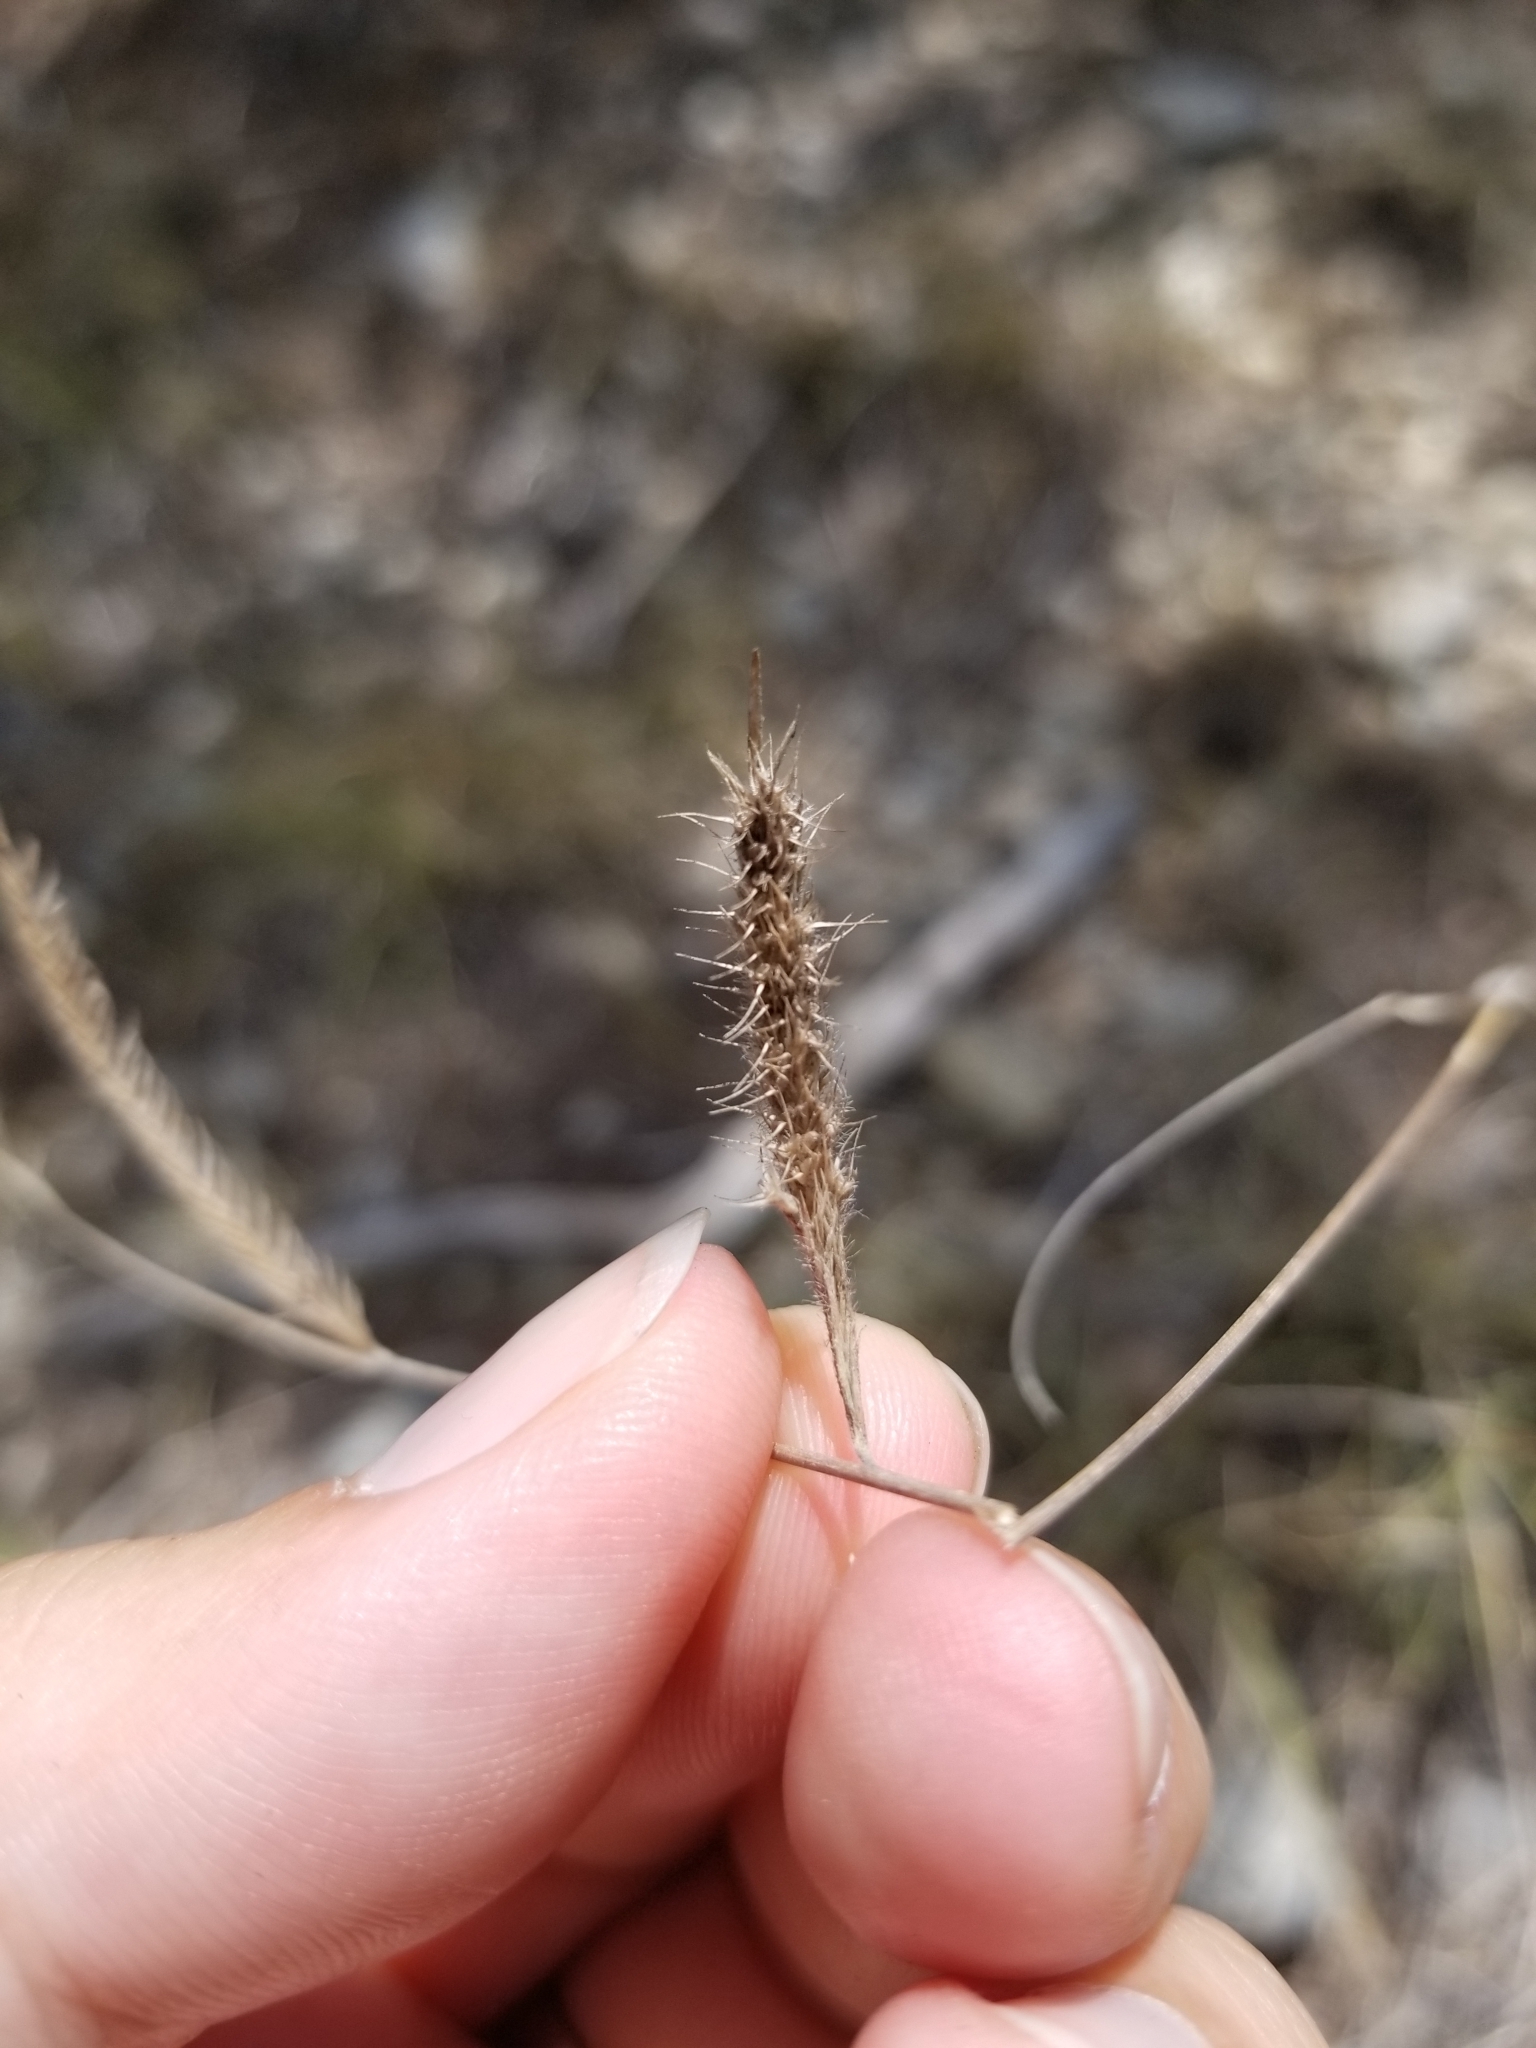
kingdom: Plantae
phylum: Tracheophyta
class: Liliopsida
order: Poales
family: Poaceae
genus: Bouteloua
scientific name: Bouteloua pectinata
